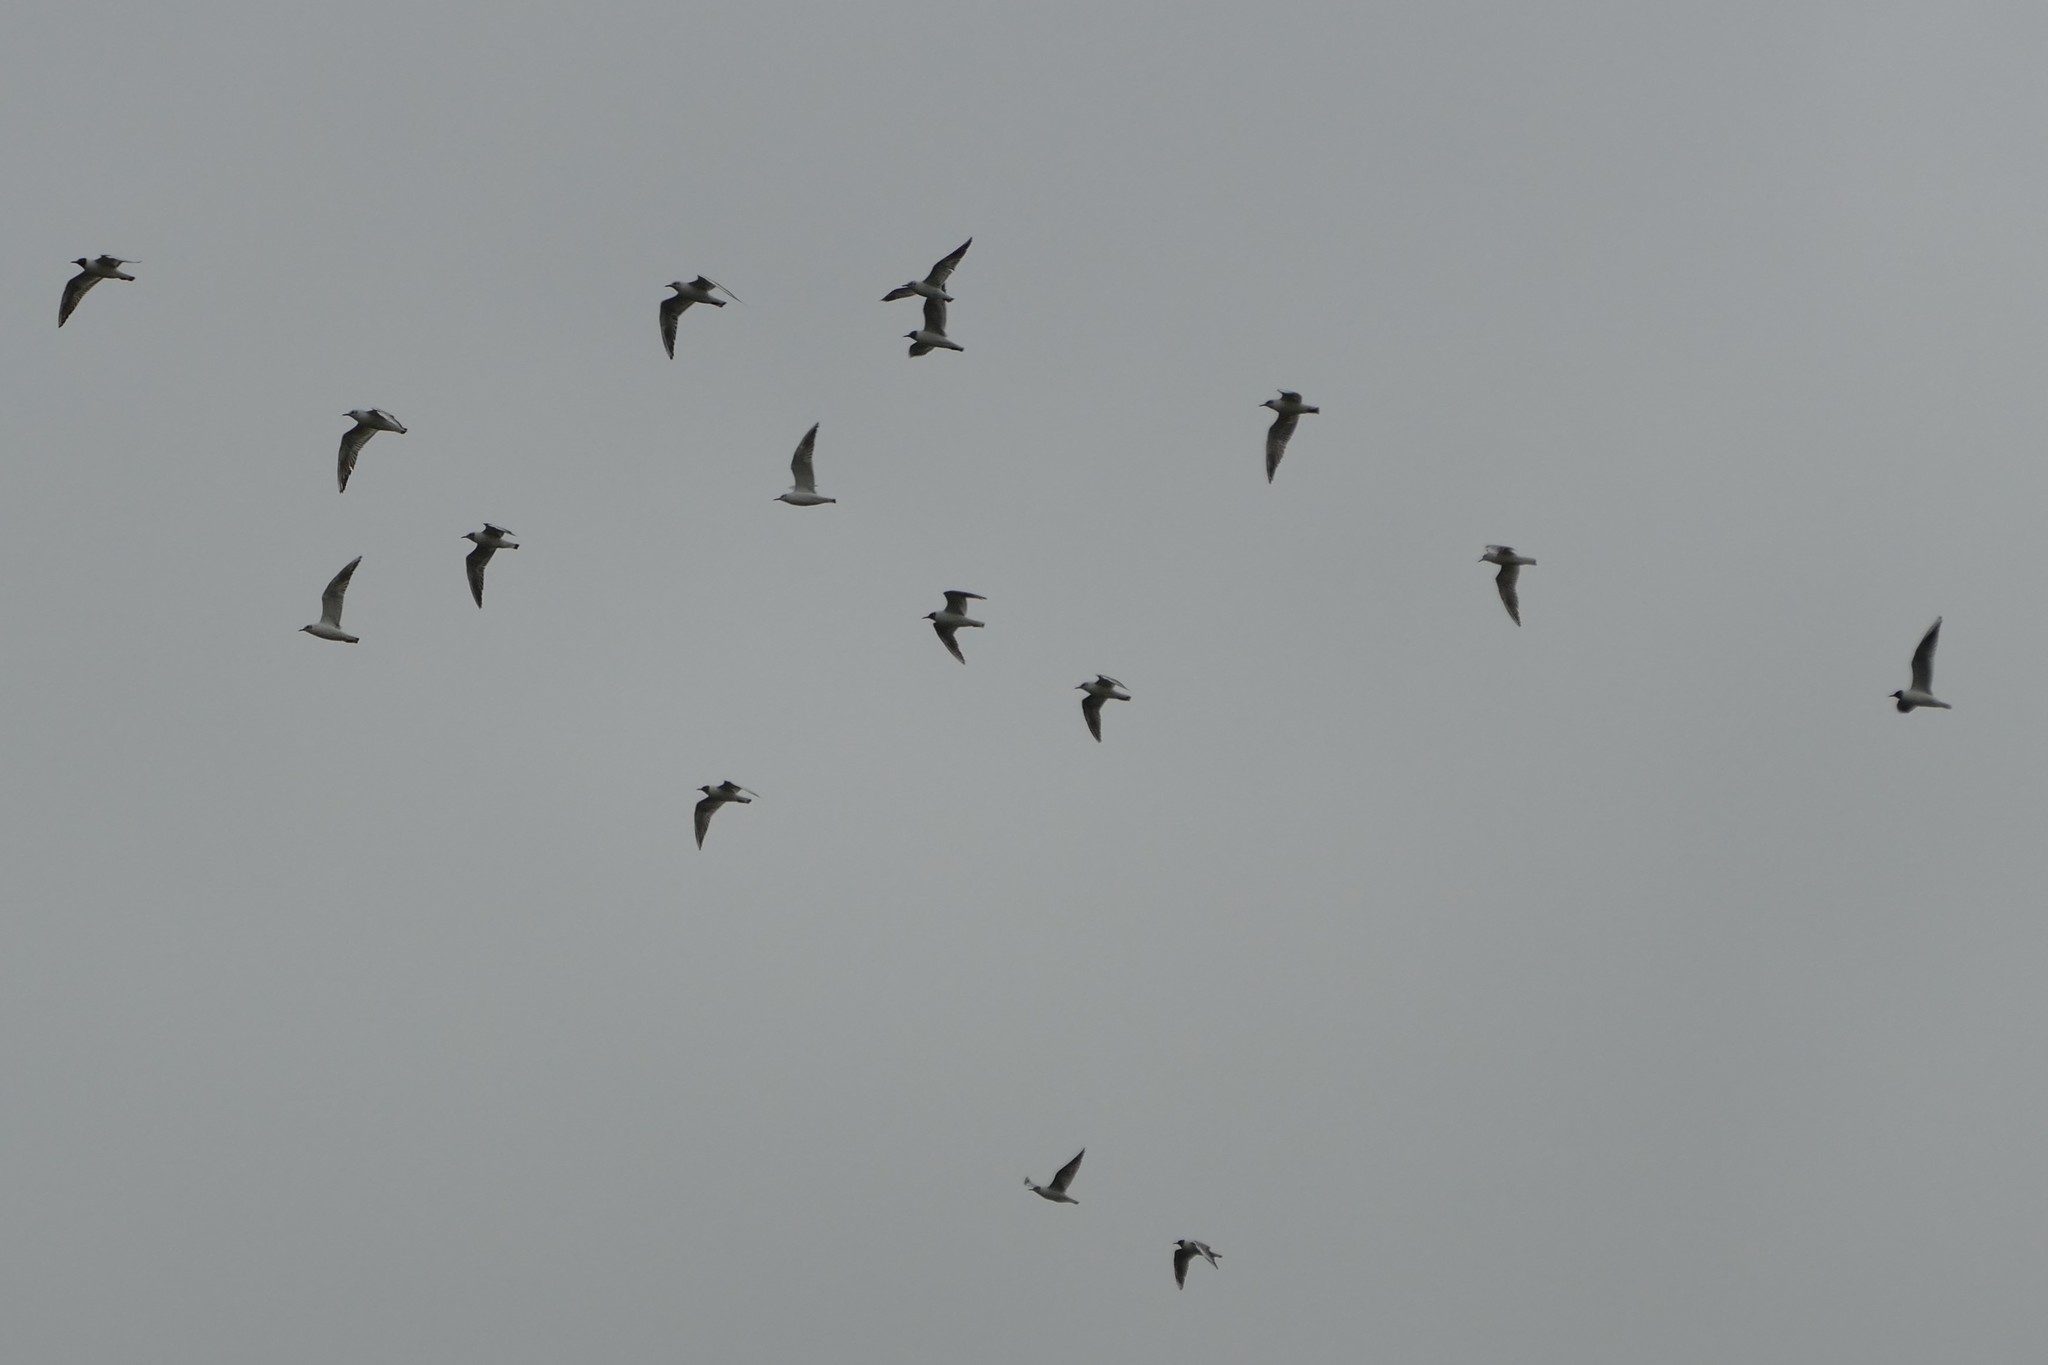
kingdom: Animalia
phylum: Chordata
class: Aves
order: Charadriiformes
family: Laridae
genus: Chroicocephalus
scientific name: Chroicocephalus ridibundus
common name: Black-headed gull
